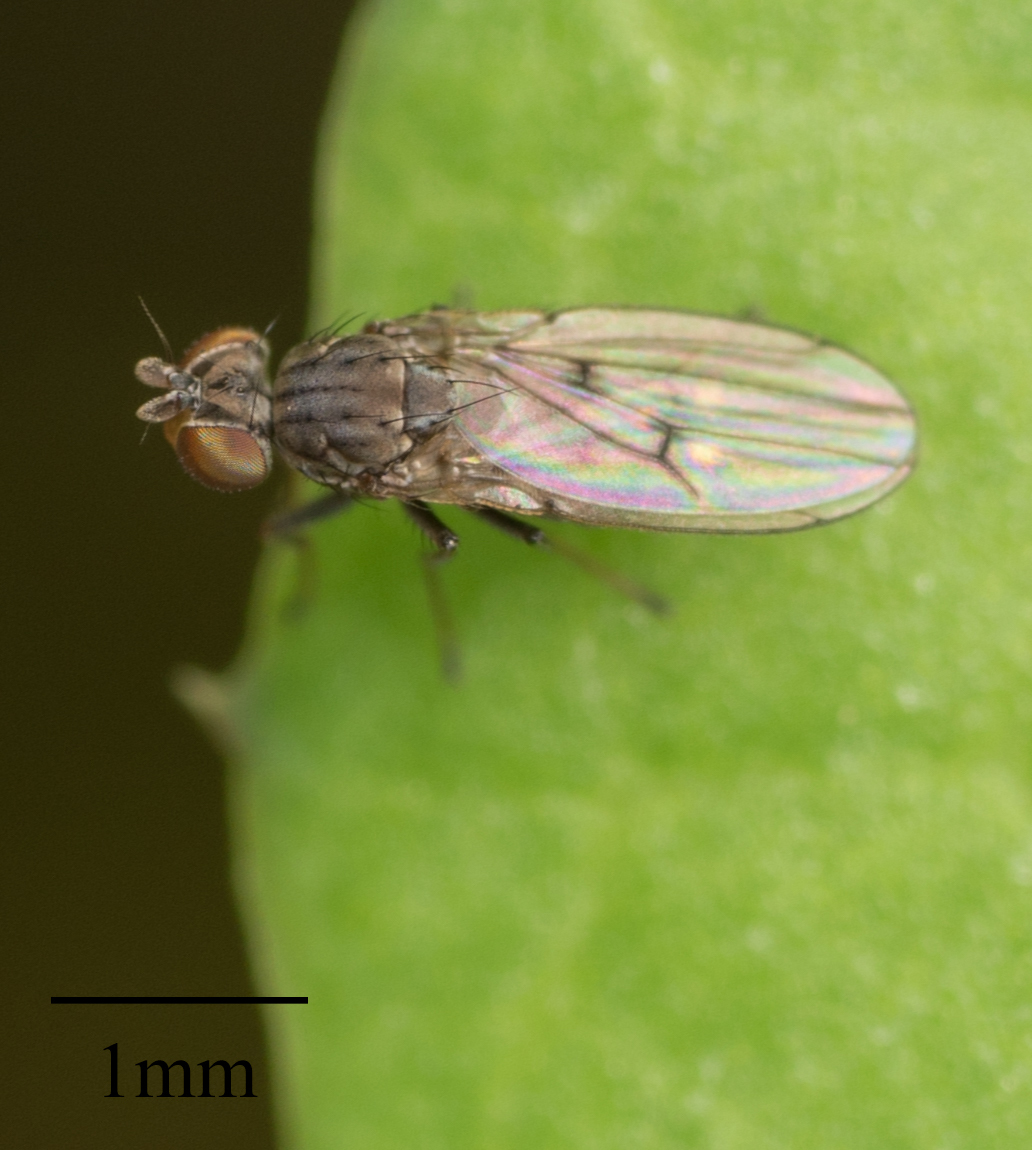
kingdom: Animalia
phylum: Arthropoda
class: Insecta
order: Diptera
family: Ephydridae
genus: Philygria
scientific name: Philygria debilis
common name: Brine fly
